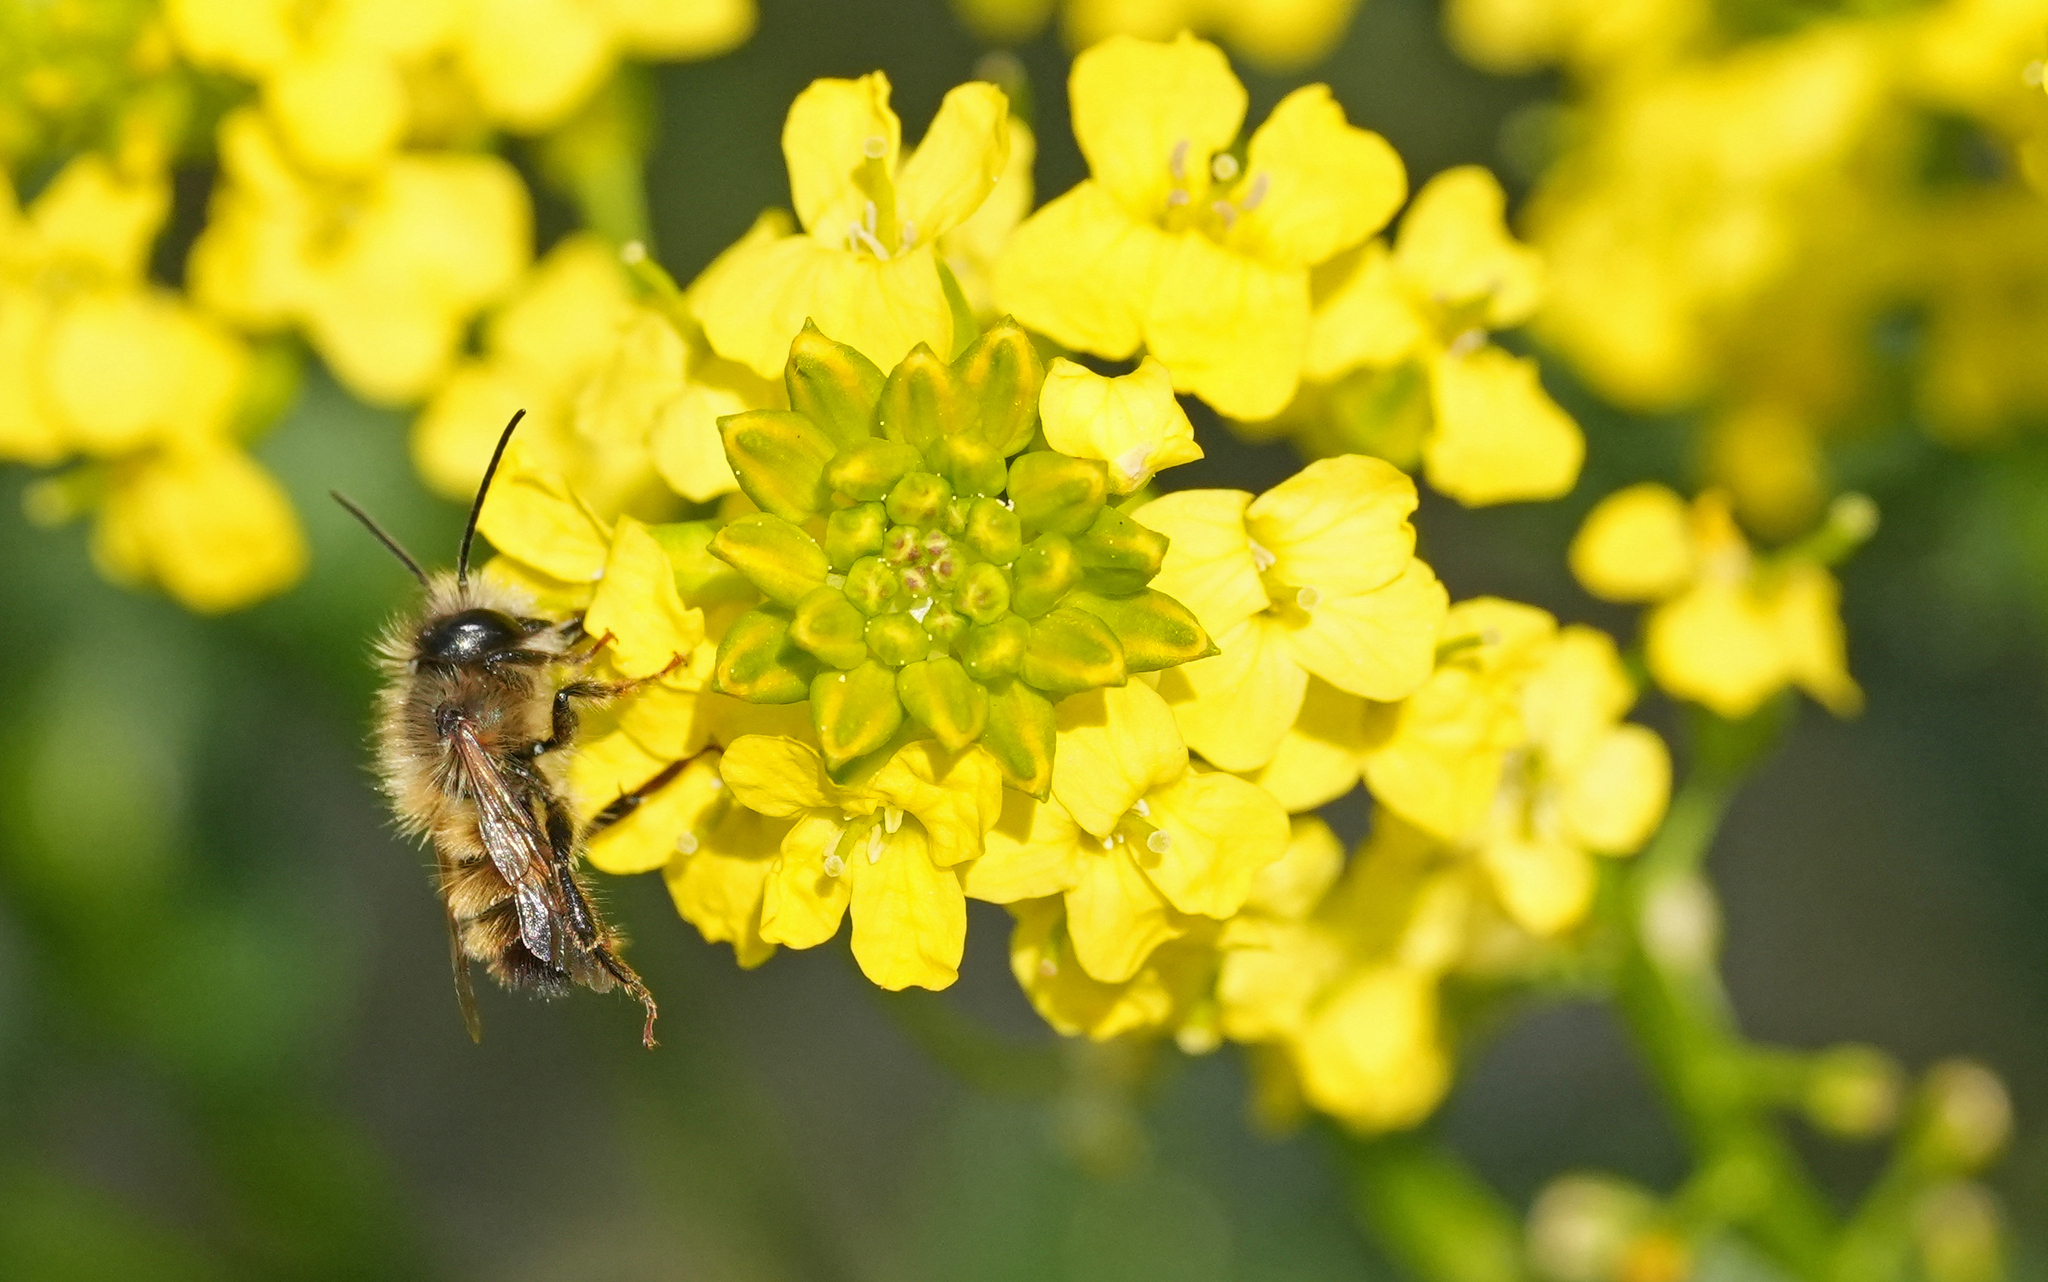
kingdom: Animalia
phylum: Arthropoda
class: Insecta
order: Hymenoptera
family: Megachilidae
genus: Osmia
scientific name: Osmia bicornis
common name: Red mason bee
